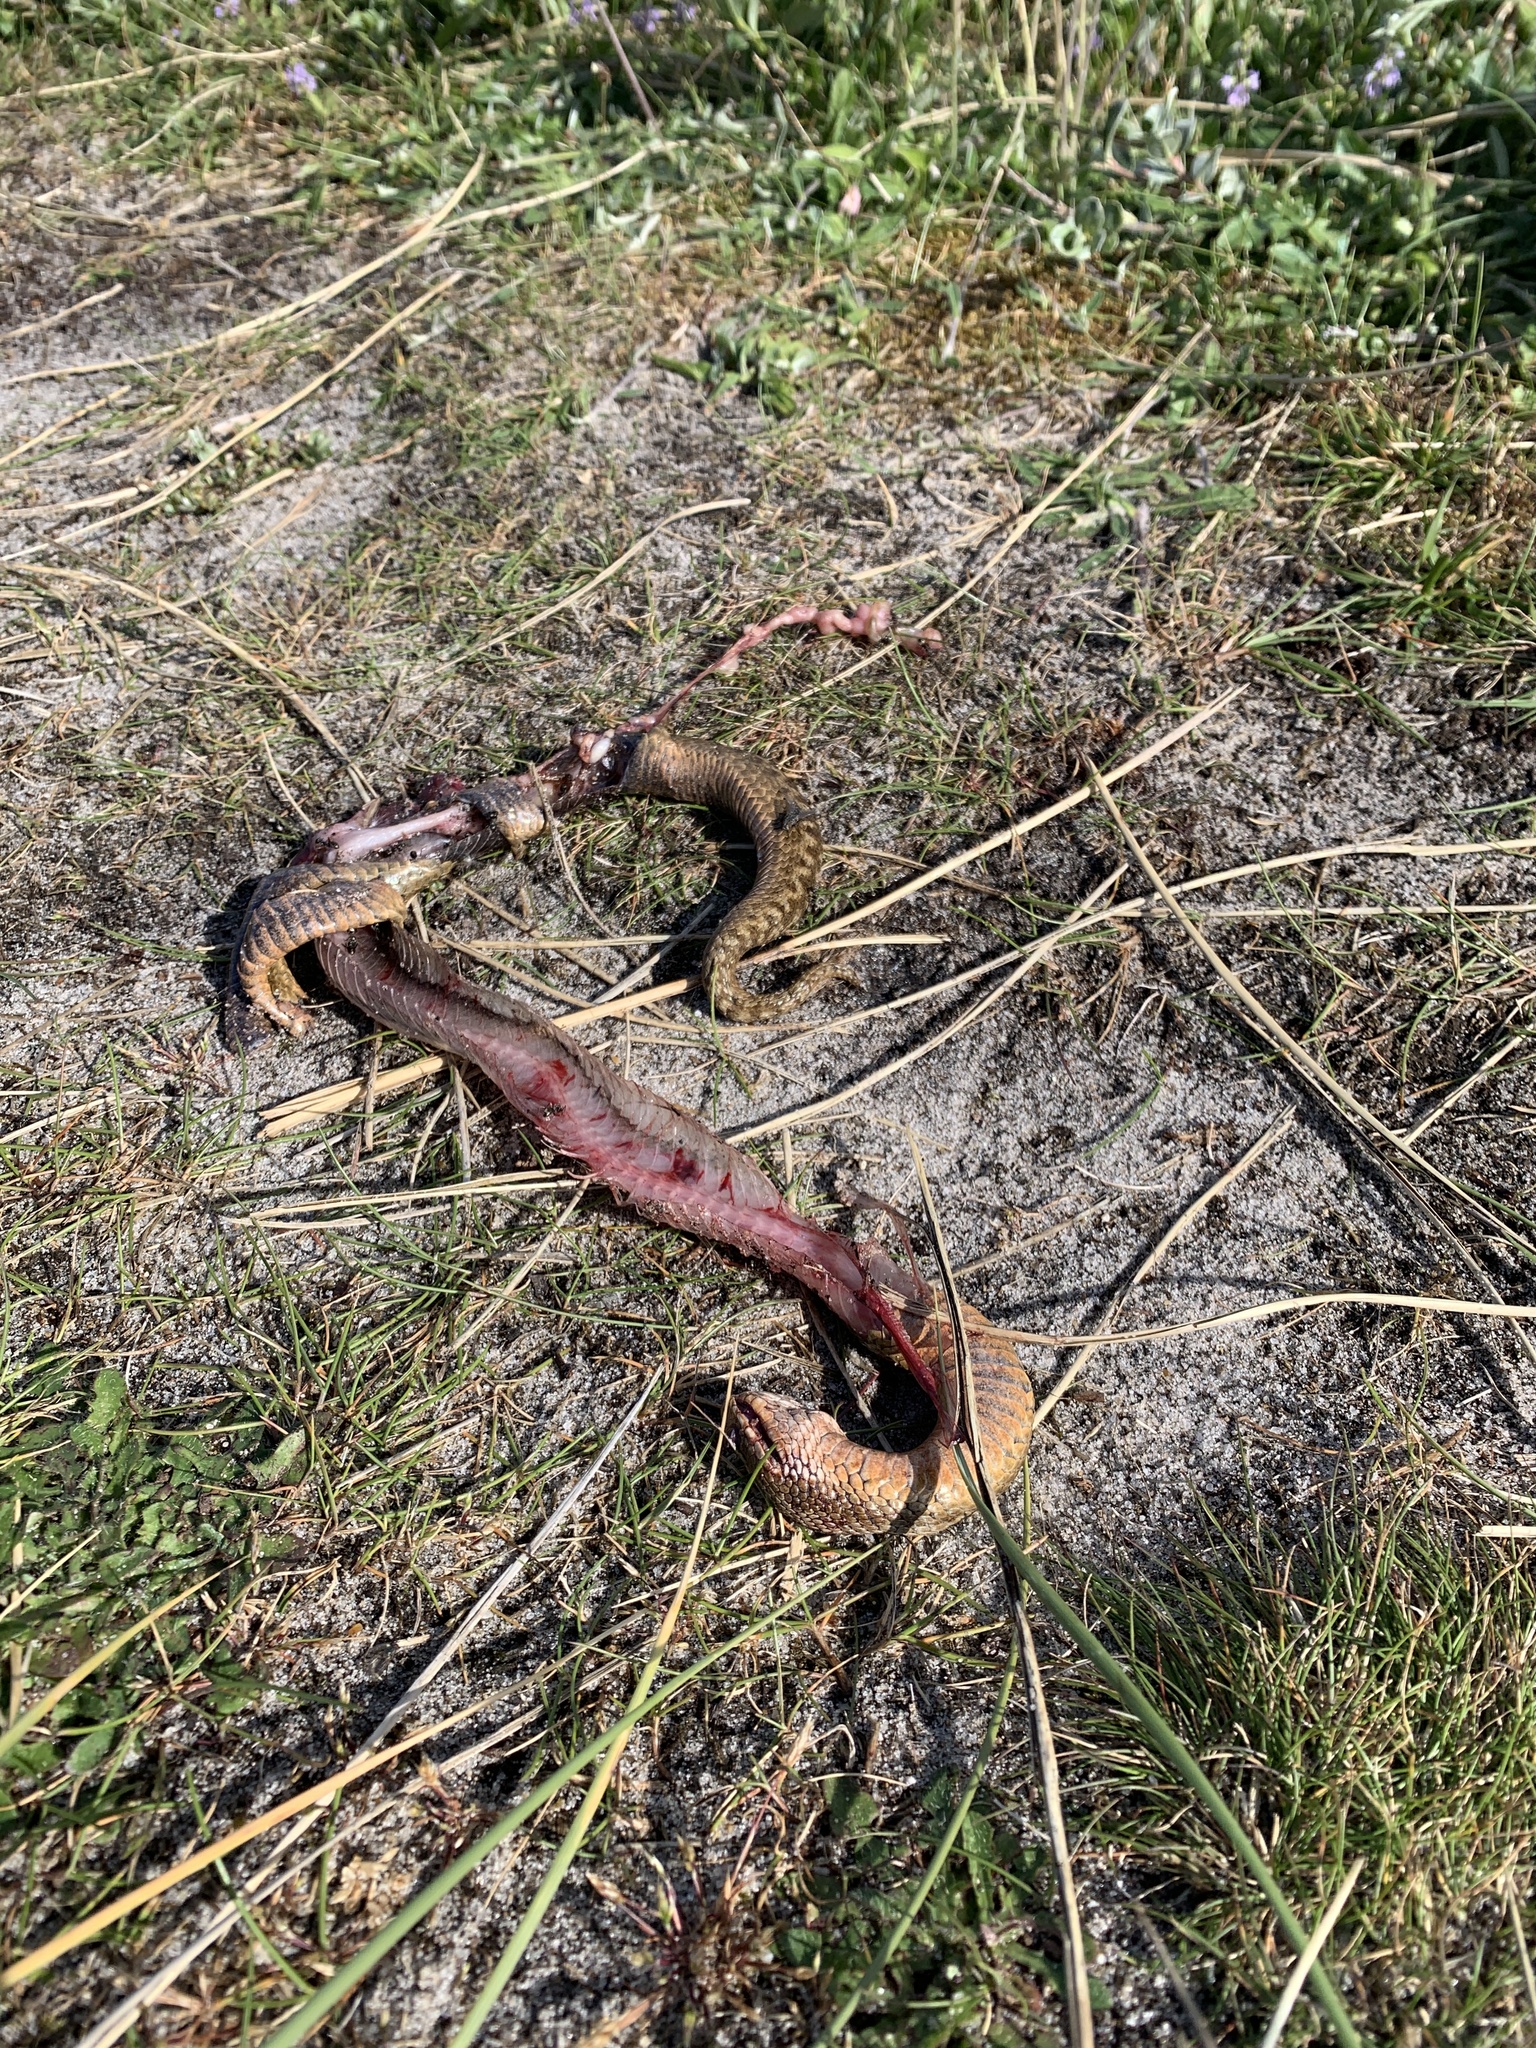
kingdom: Animalia
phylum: Chordata
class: Squamata
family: Viperidae
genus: Vipera
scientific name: Vipera berus
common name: Adder
